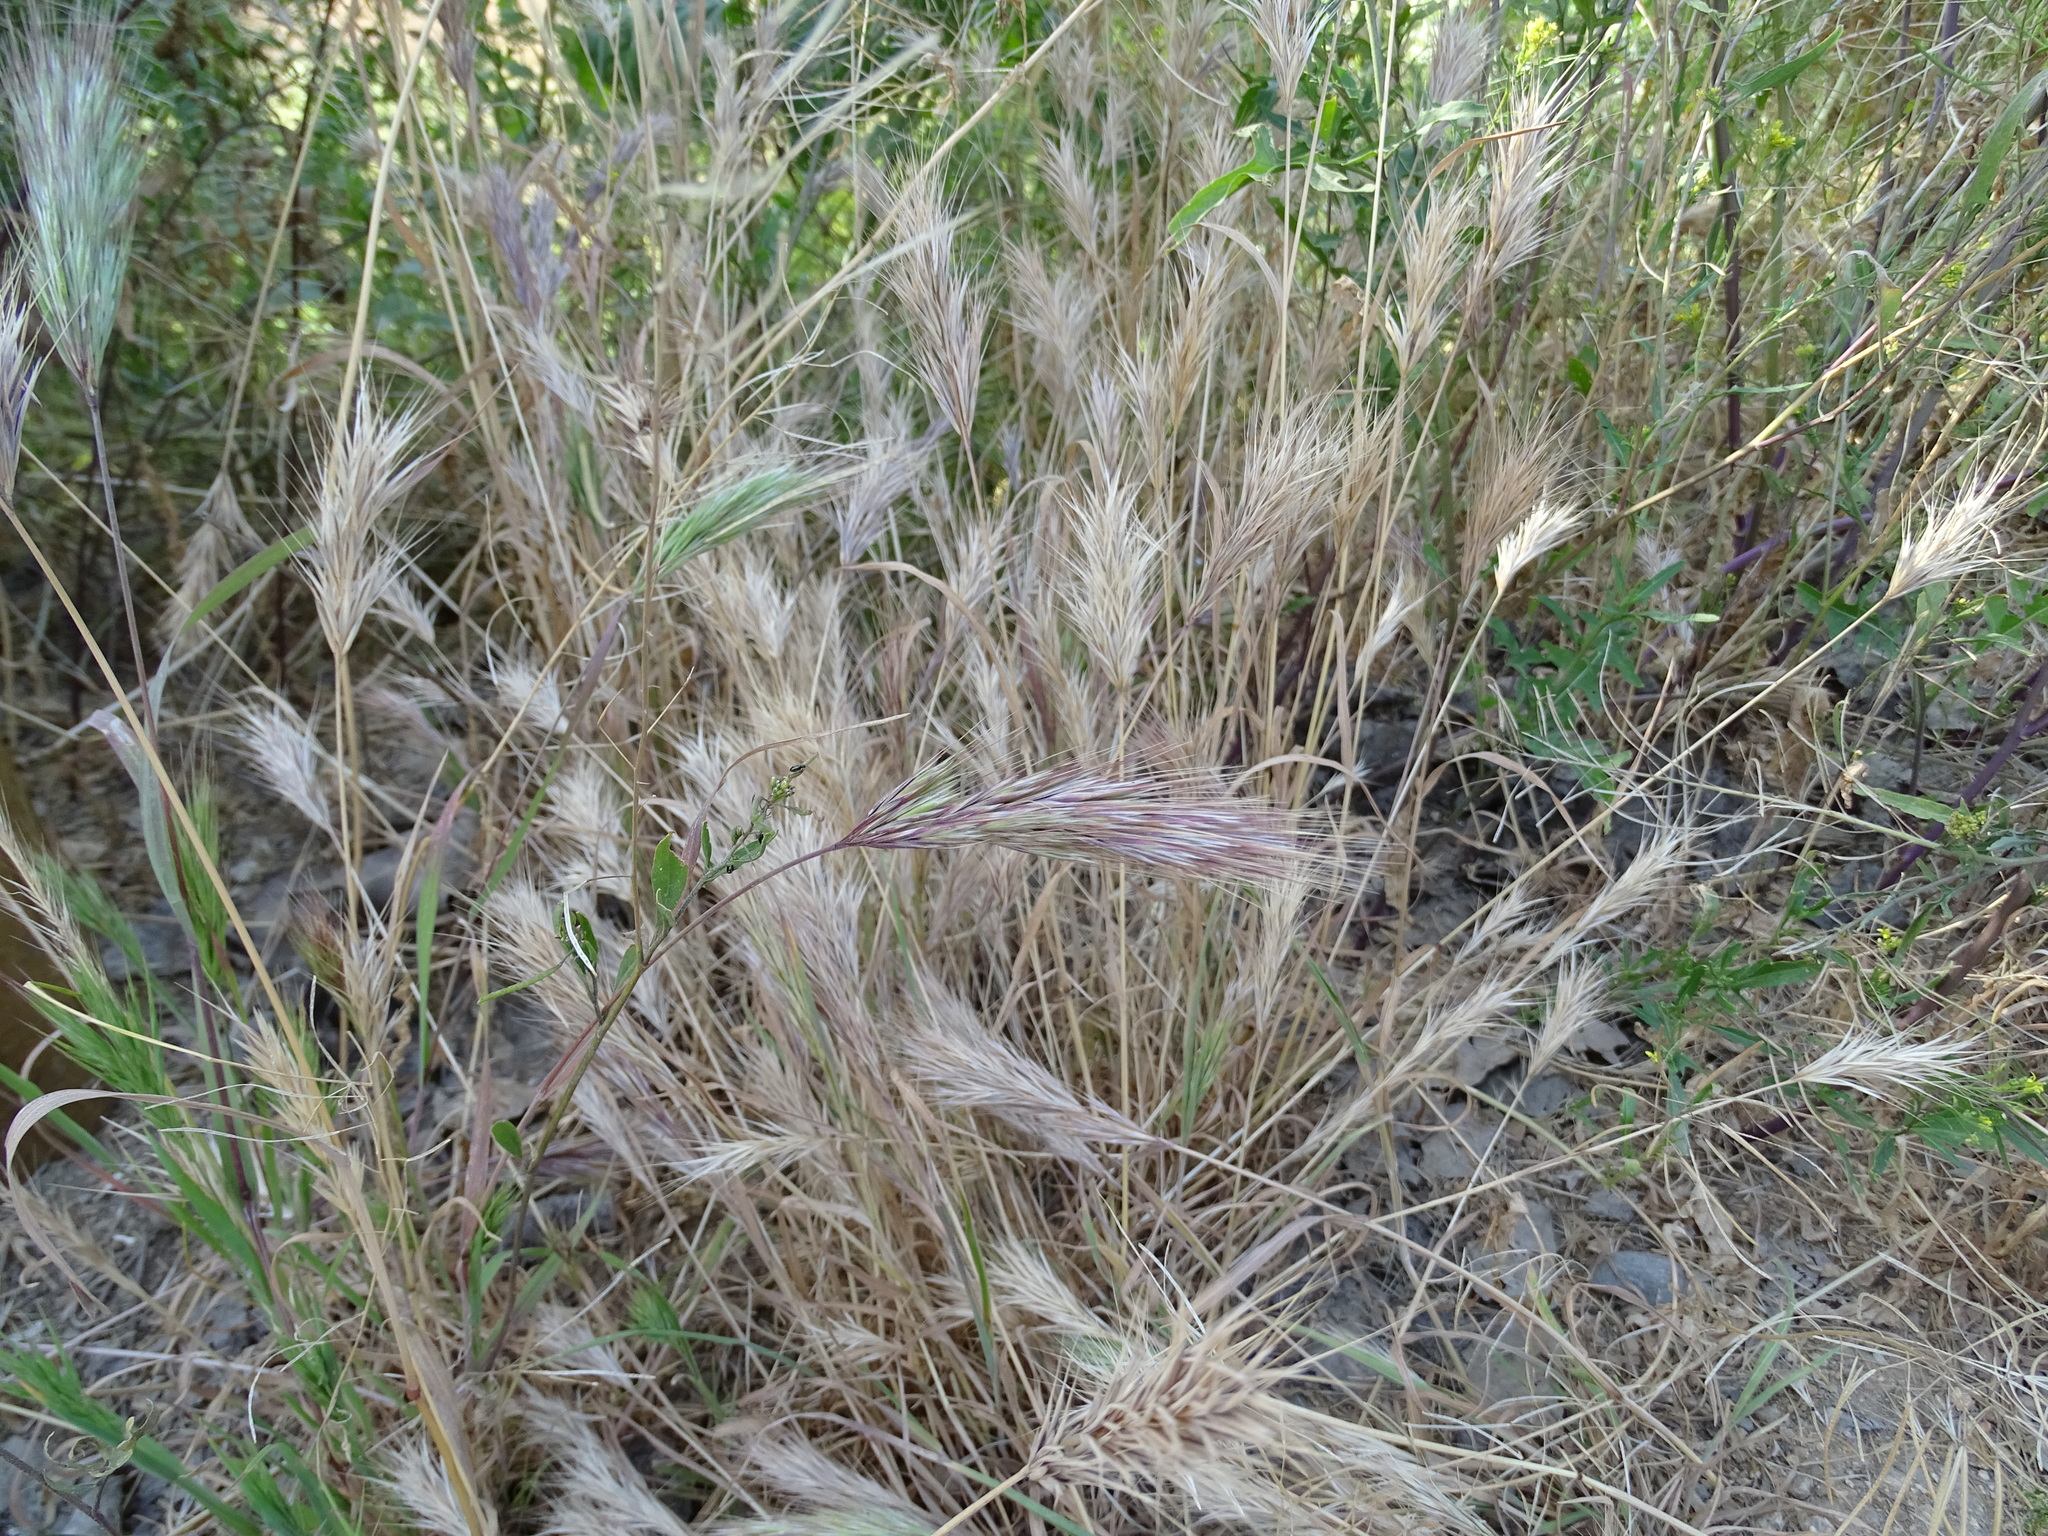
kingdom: Plantae
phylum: Tracheophyta
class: Liliopsida
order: Poales
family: Poaceae
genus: Bromus
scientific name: Bromus madritensis
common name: Compact brome
